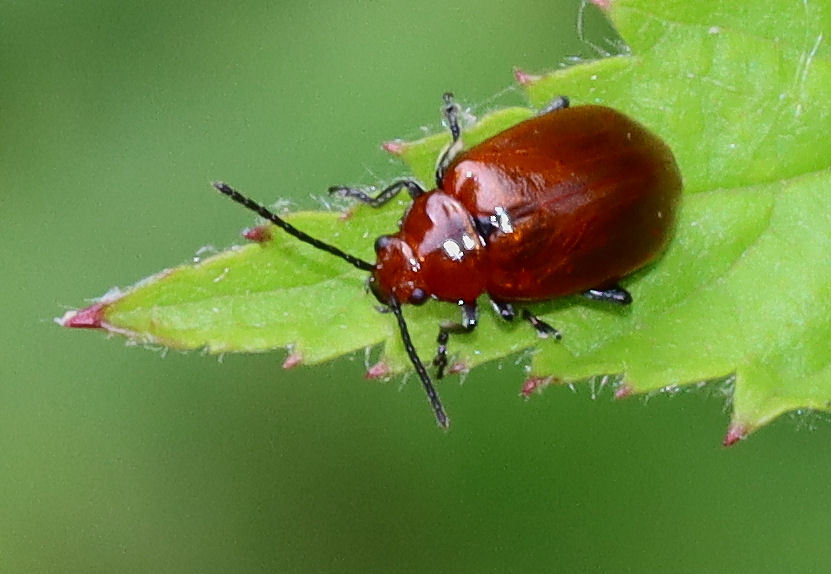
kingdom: Animalia
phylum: Arthropoda
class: Insecta
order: Coleoptera
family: Chrysomelidae
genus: Strabala
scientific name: Strabala rufa
